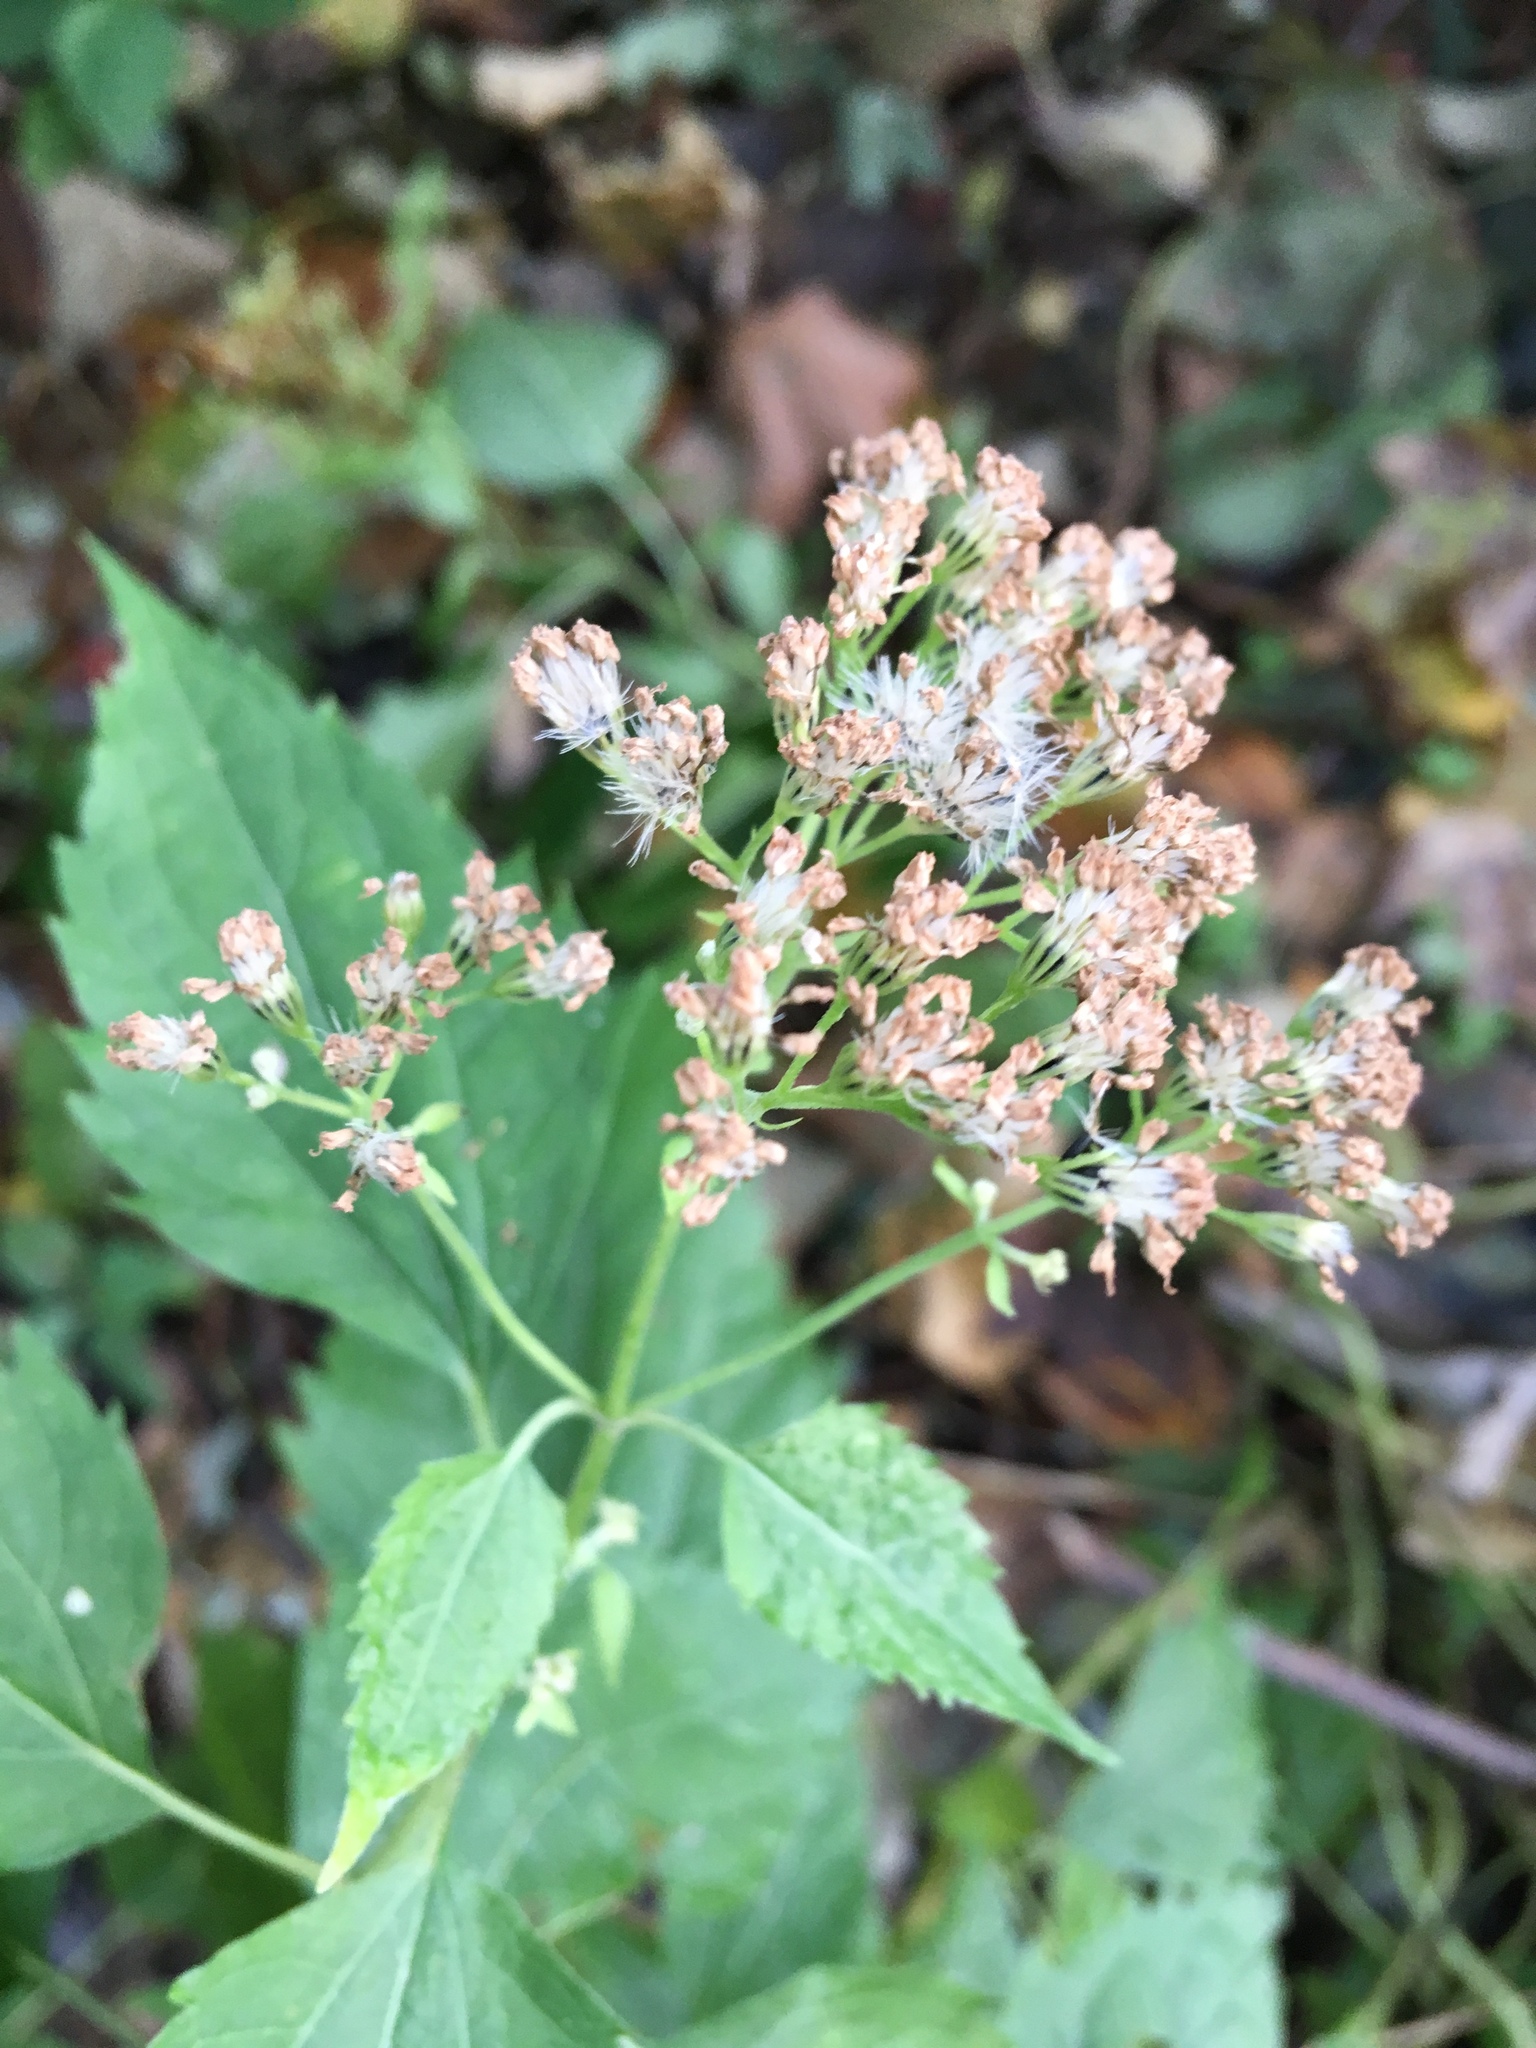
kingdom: Plantae
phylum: Tracheophyta
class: Magnoliopsida
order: Asterales
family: Asteraceae
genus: Ageratina
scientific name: Ageratina altissima
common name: White snakeroot
